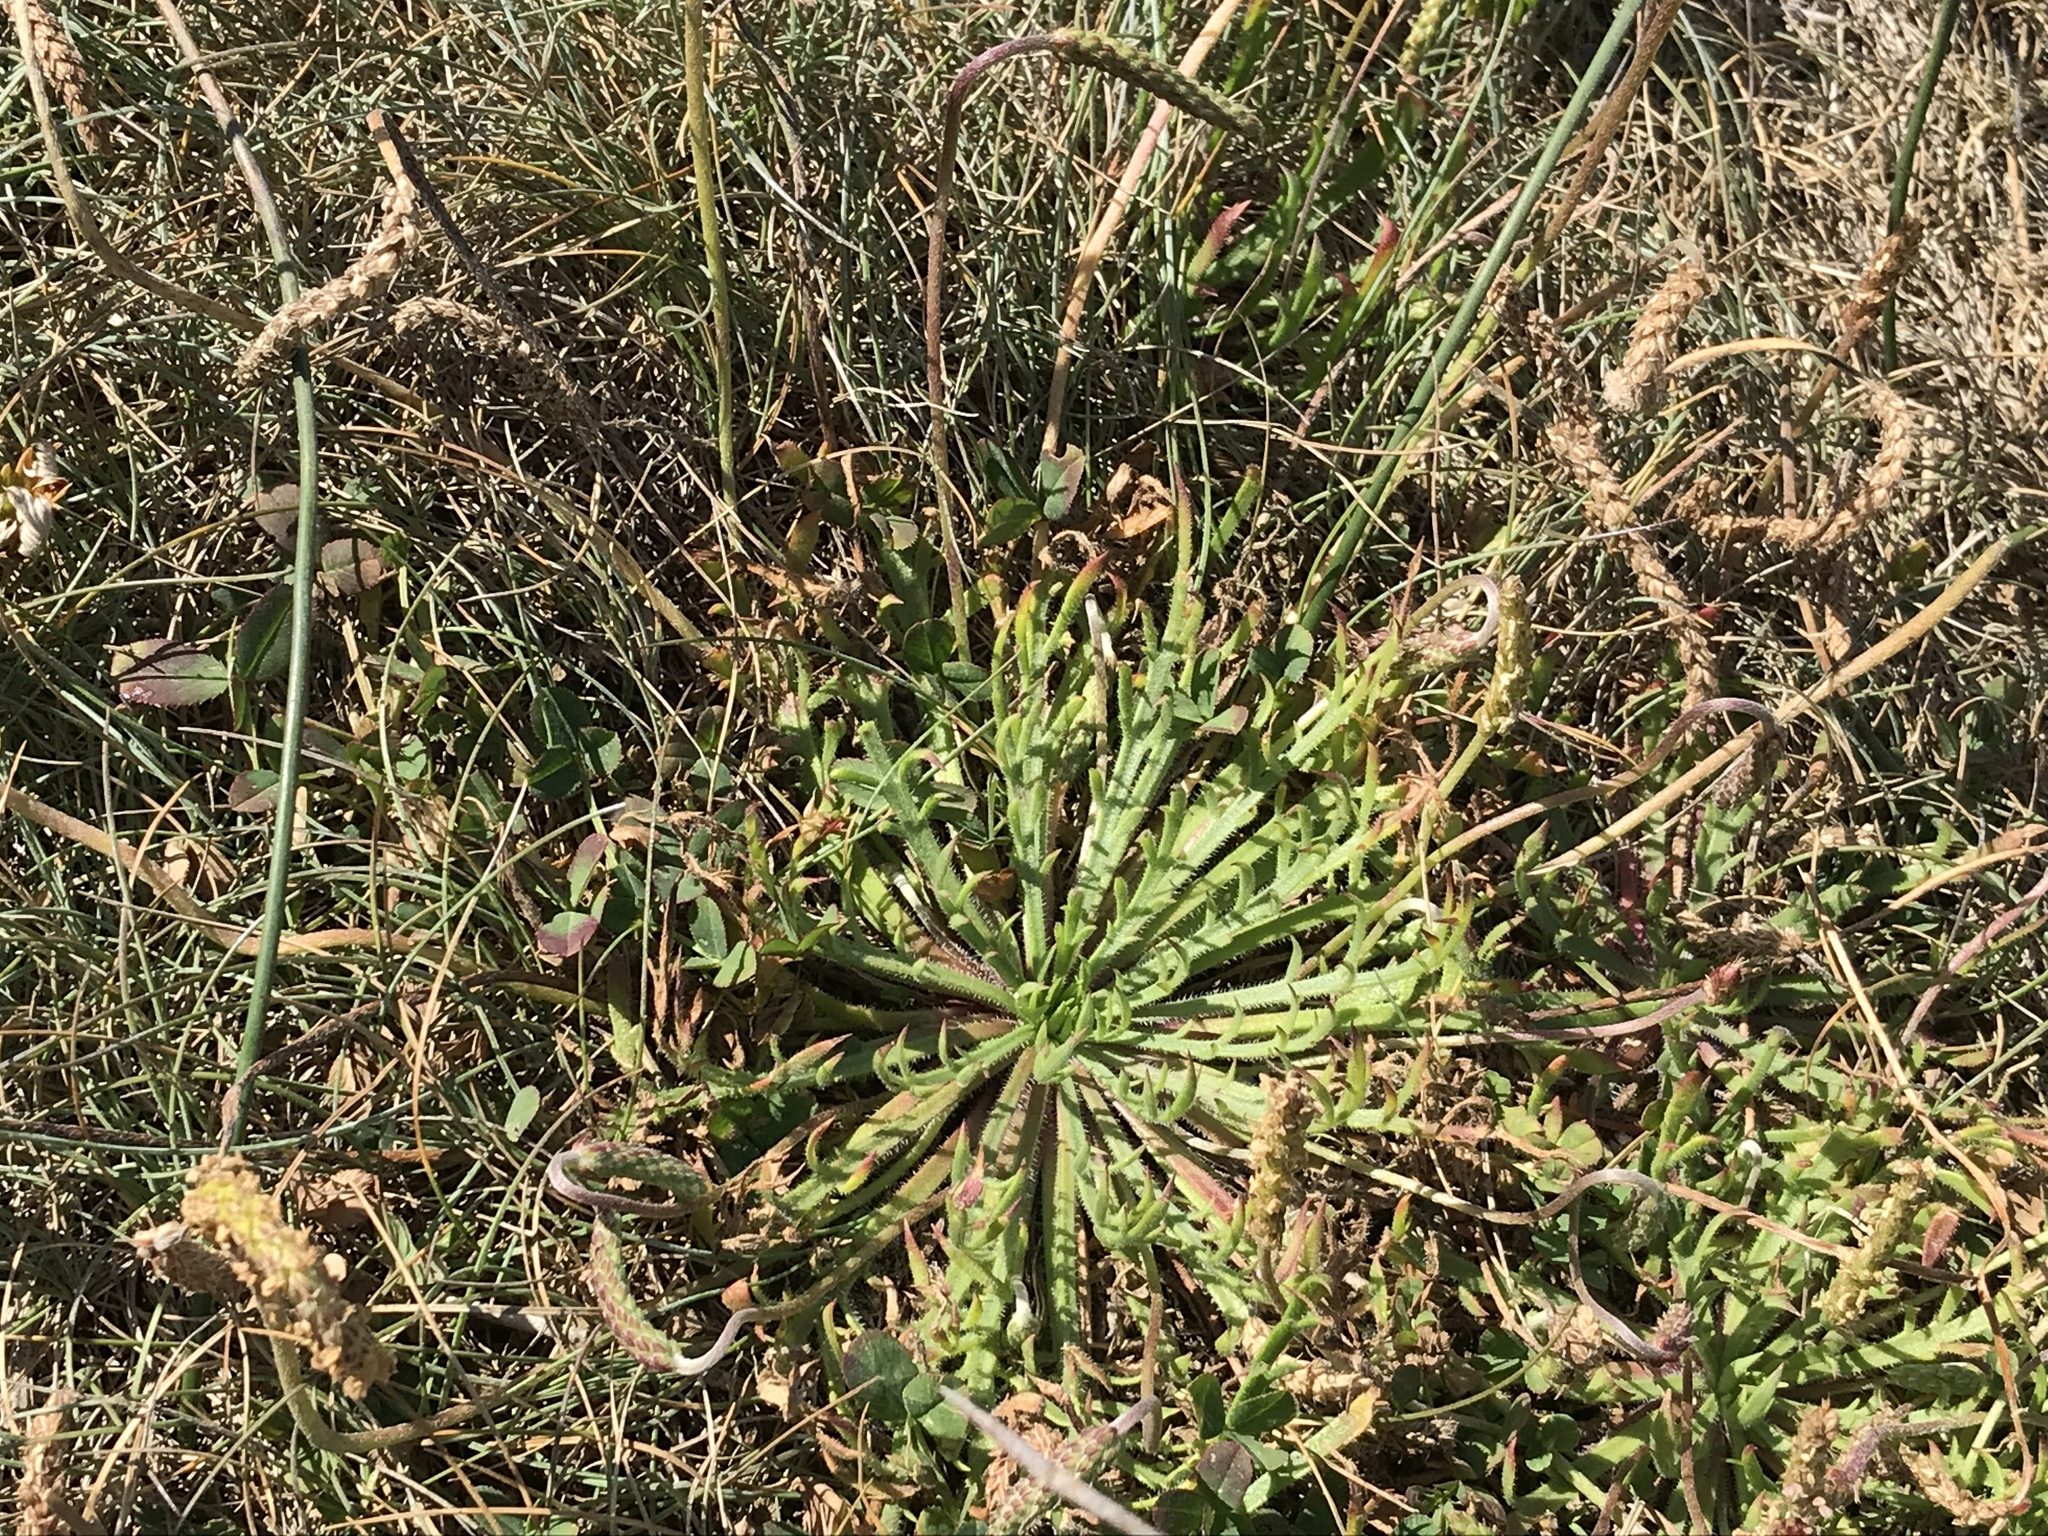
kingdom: Plantae
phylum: Tracheophyta
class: Magnoliopsida
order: Lamiales
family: Plantaginaceae
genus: Plantago
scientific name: Plantago coronopus
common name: Buck's-horn plantain
